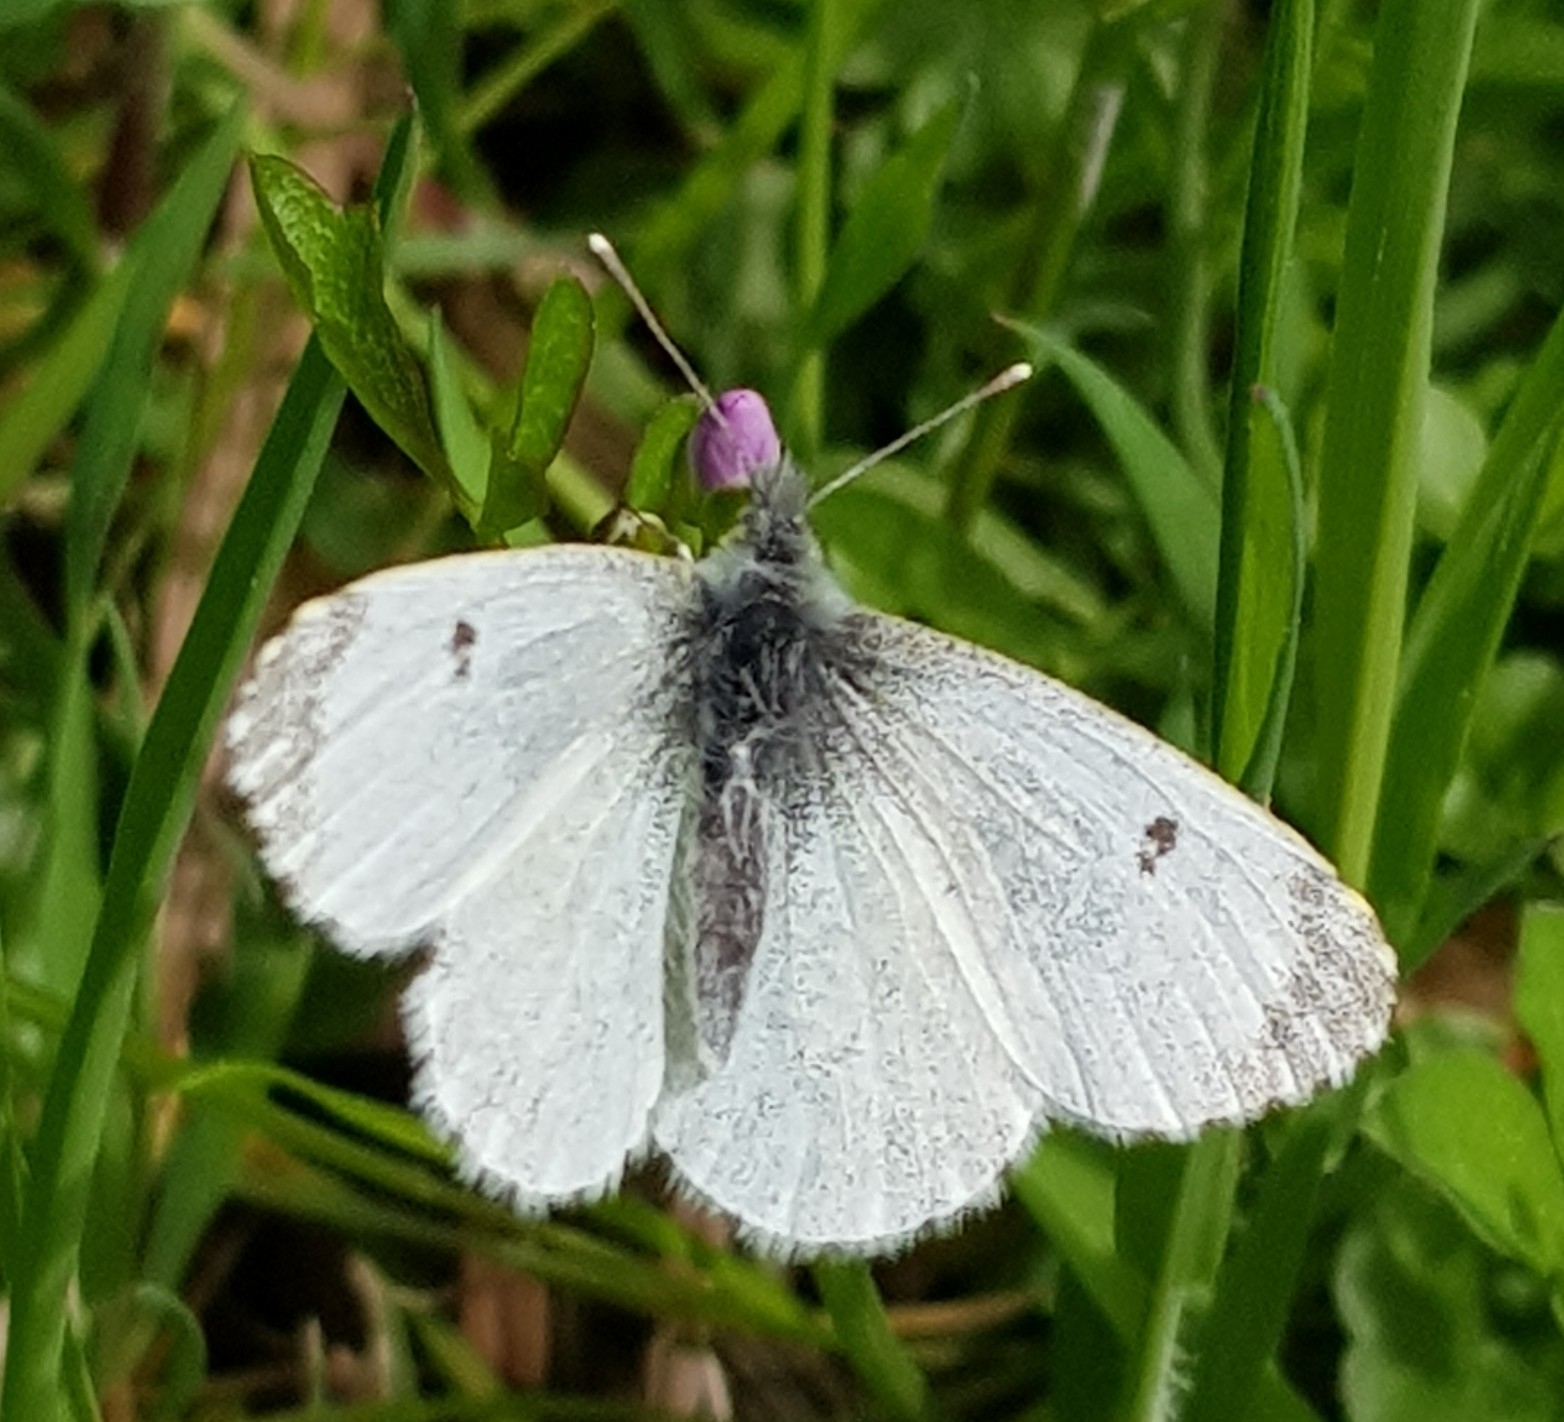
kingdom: Animalia
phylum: Arthropoda
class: Insecta
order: Lepidoptera
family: Pieridae
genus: Anthocharis
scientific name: Anthocharis cardamines
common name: Orange-tip
